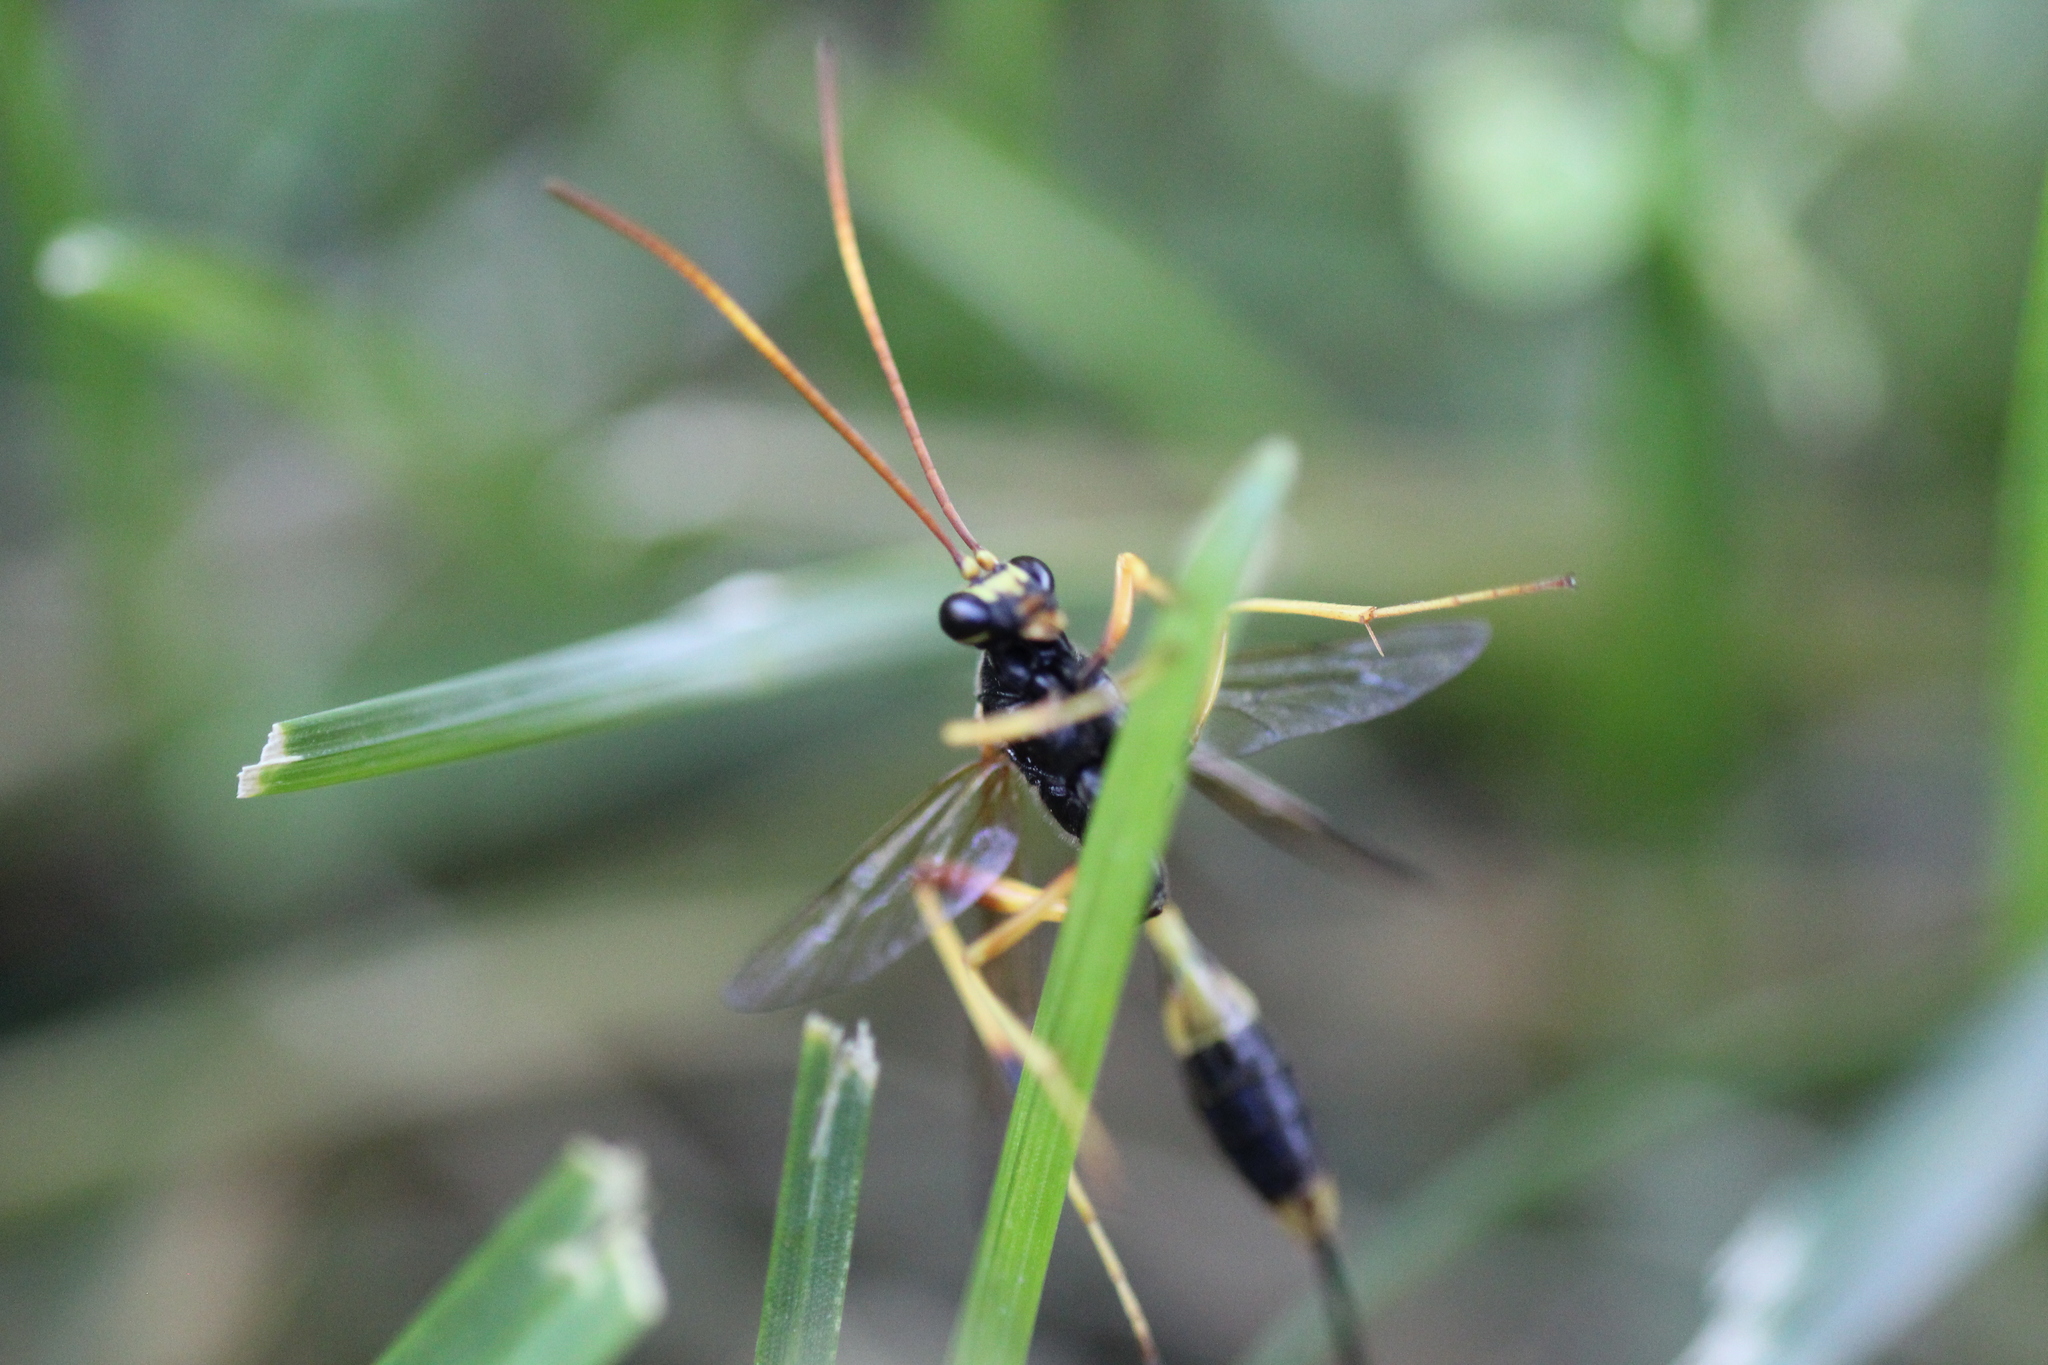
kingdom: Animalia
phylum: Arthropoda
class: Insecta
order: Hymenoptera
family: Ichneumonidae
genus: Acroricnus
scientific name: Acroricnus seductor
